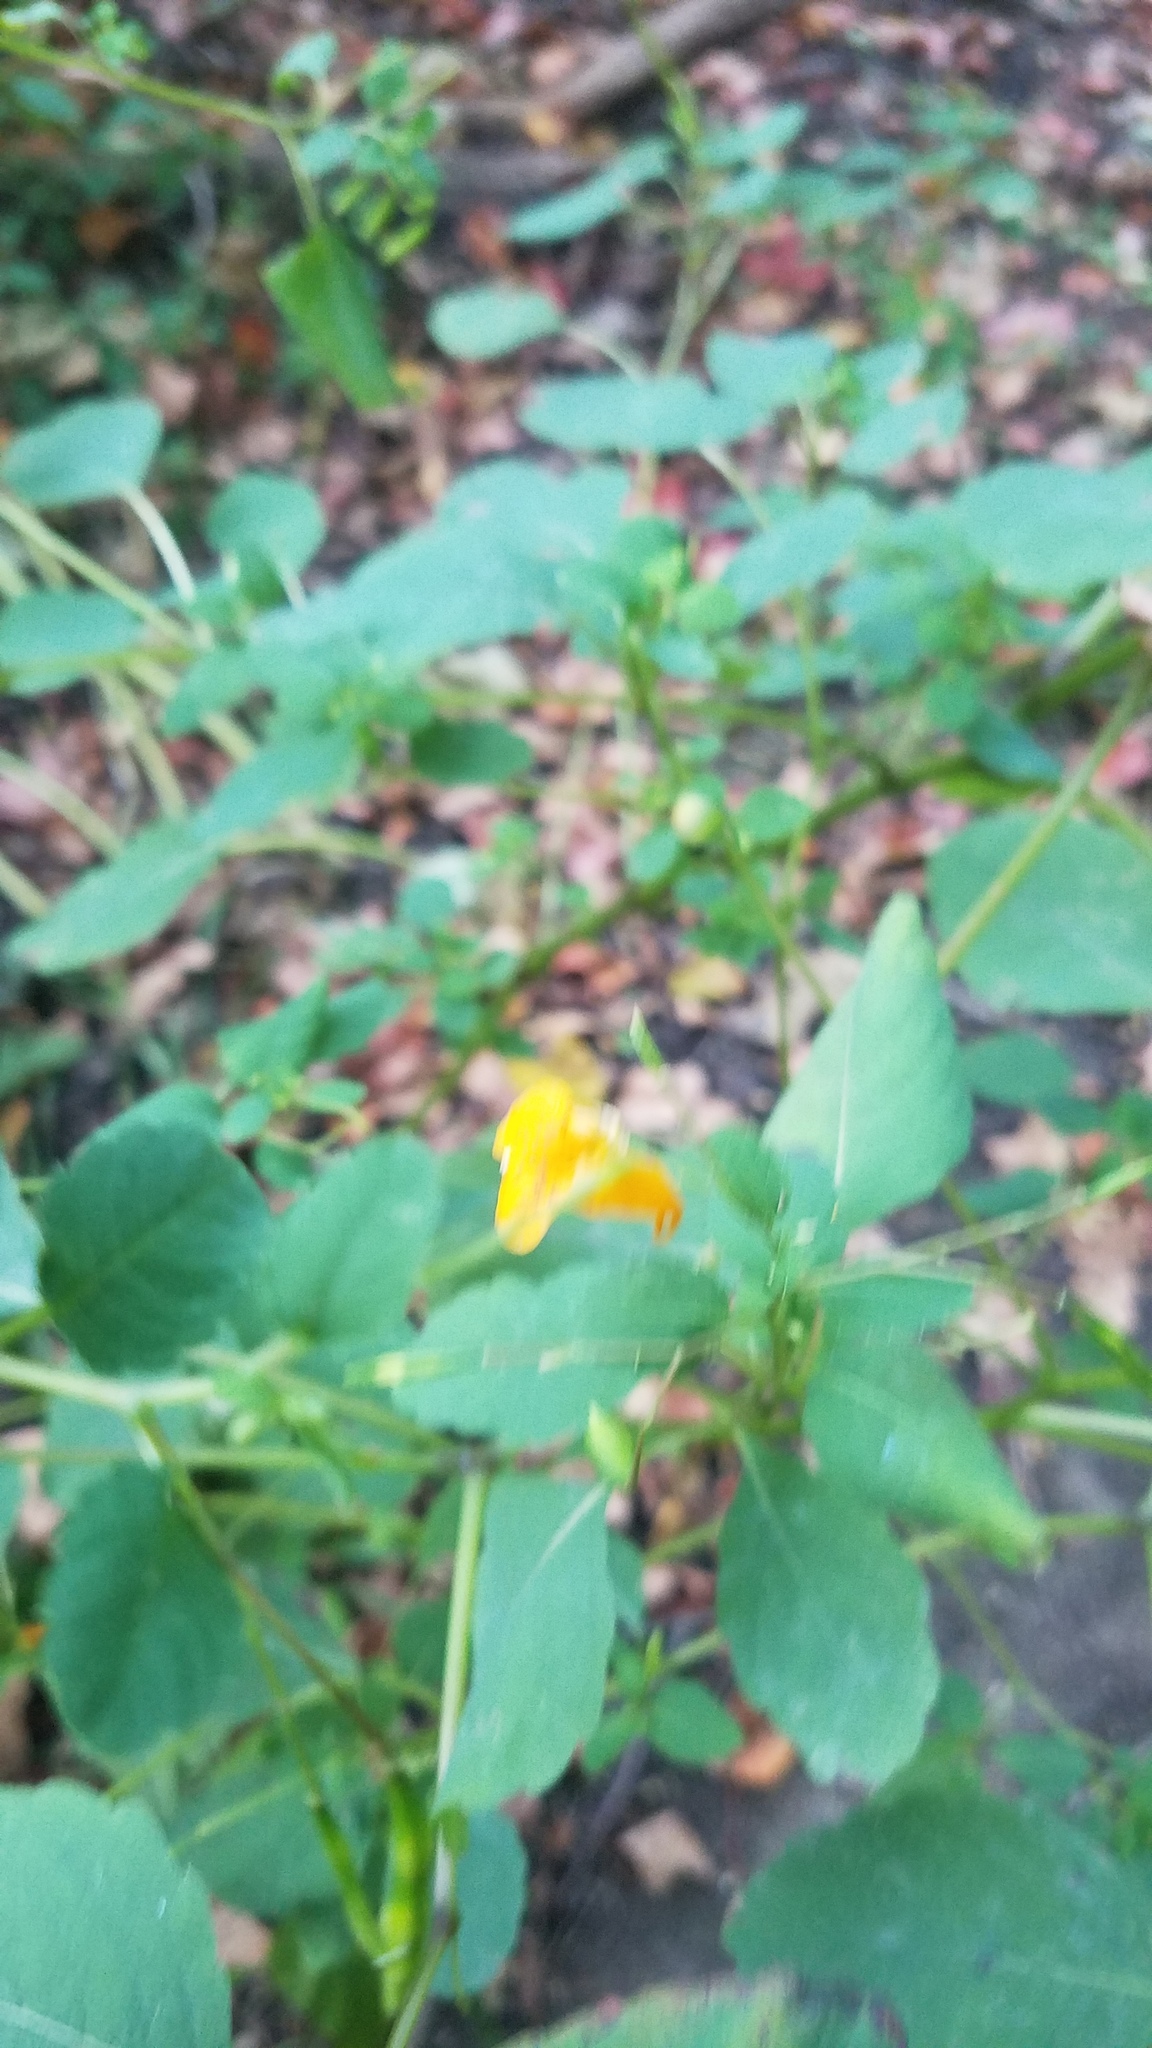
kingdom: Plantae
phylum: Tracheophyta
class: Magnoliopsida
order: Ericales
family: Balsaminaceae
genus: Impatiens
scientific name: Impatiens capensis
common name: Orange balsam
